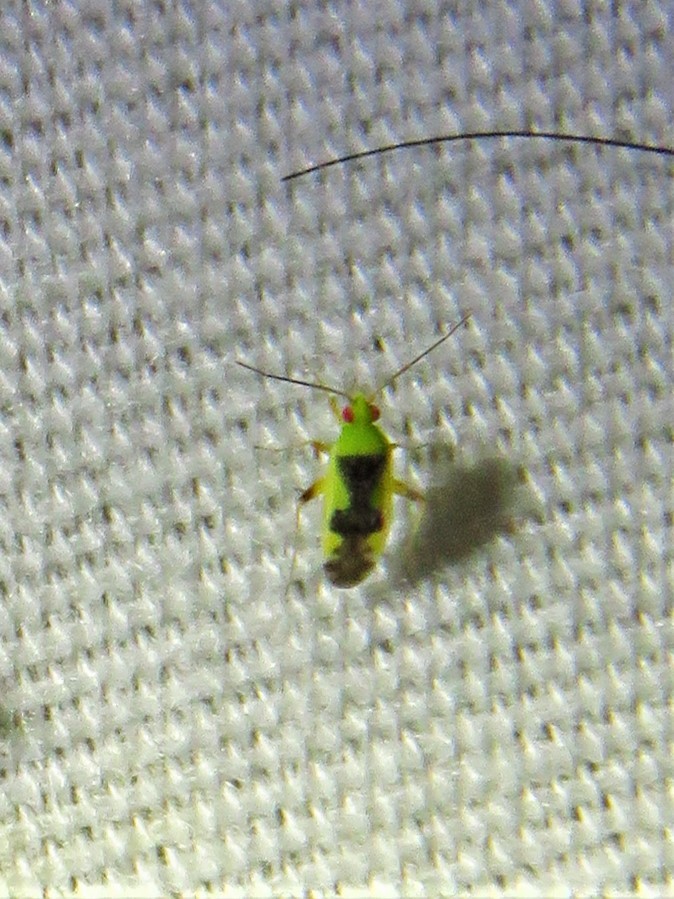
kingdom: Animalia
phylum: Arthropoda
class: Insecta
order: Hemiptera
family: Miridae
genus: Reuteroscopus
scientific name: Reuteroscopus femoralis
